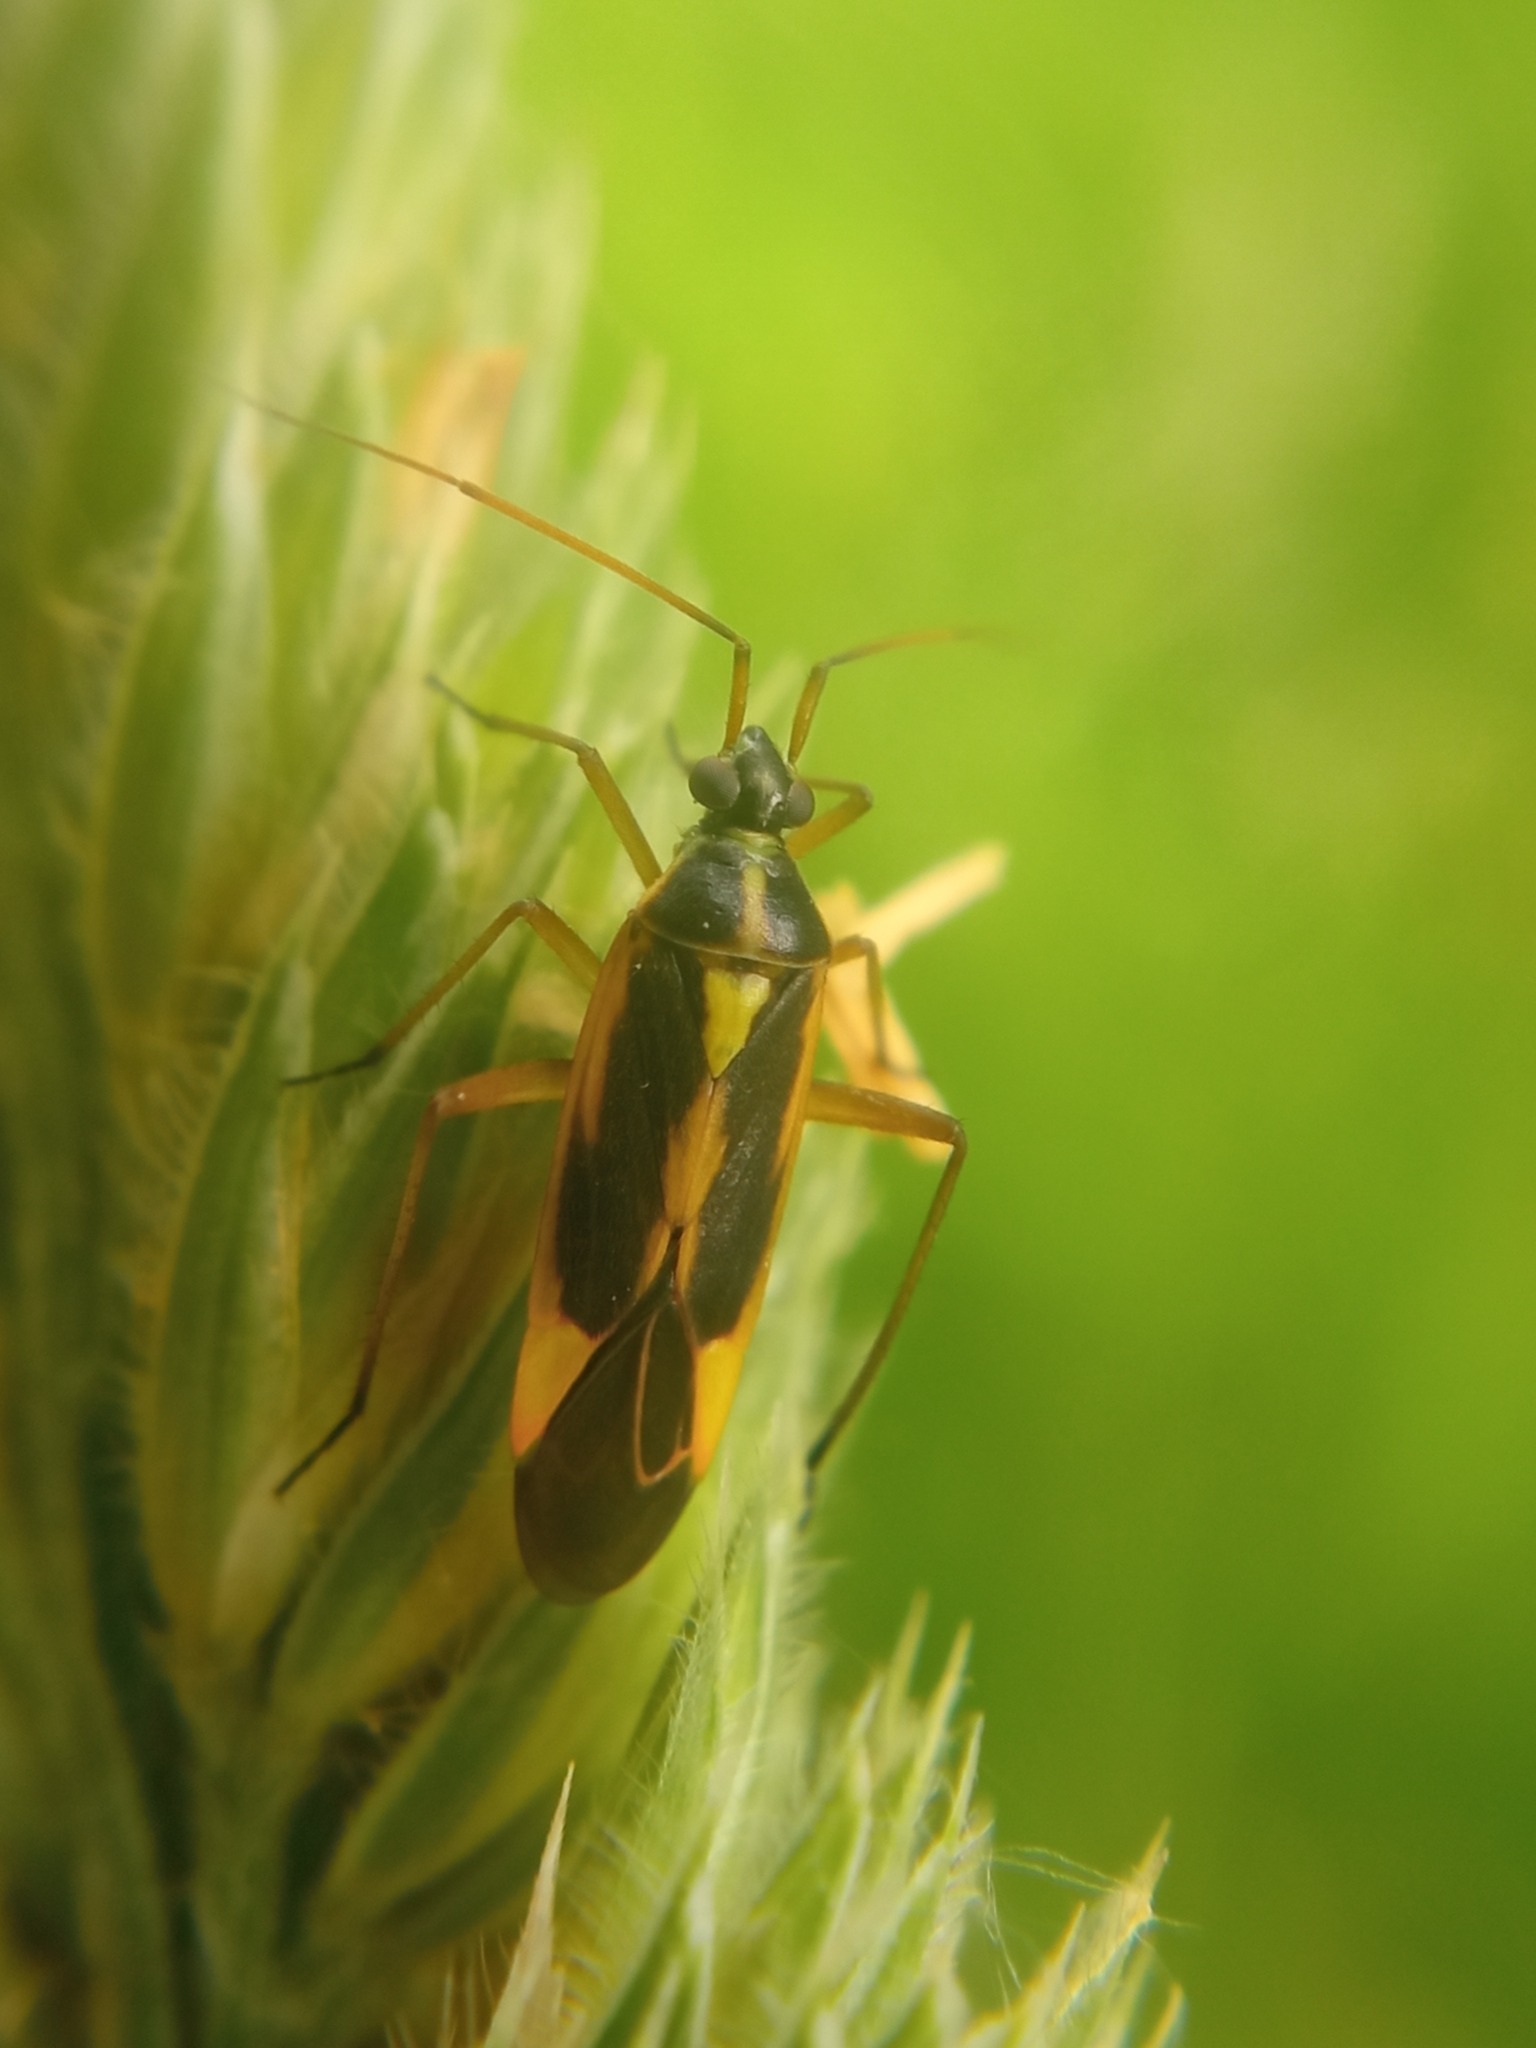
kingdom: Animalia
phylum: Arthropoda
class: Insecta
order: Hemiptera
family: Miridae
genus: Stenotus
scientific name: Stenotus binotatus
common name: Plant bug
